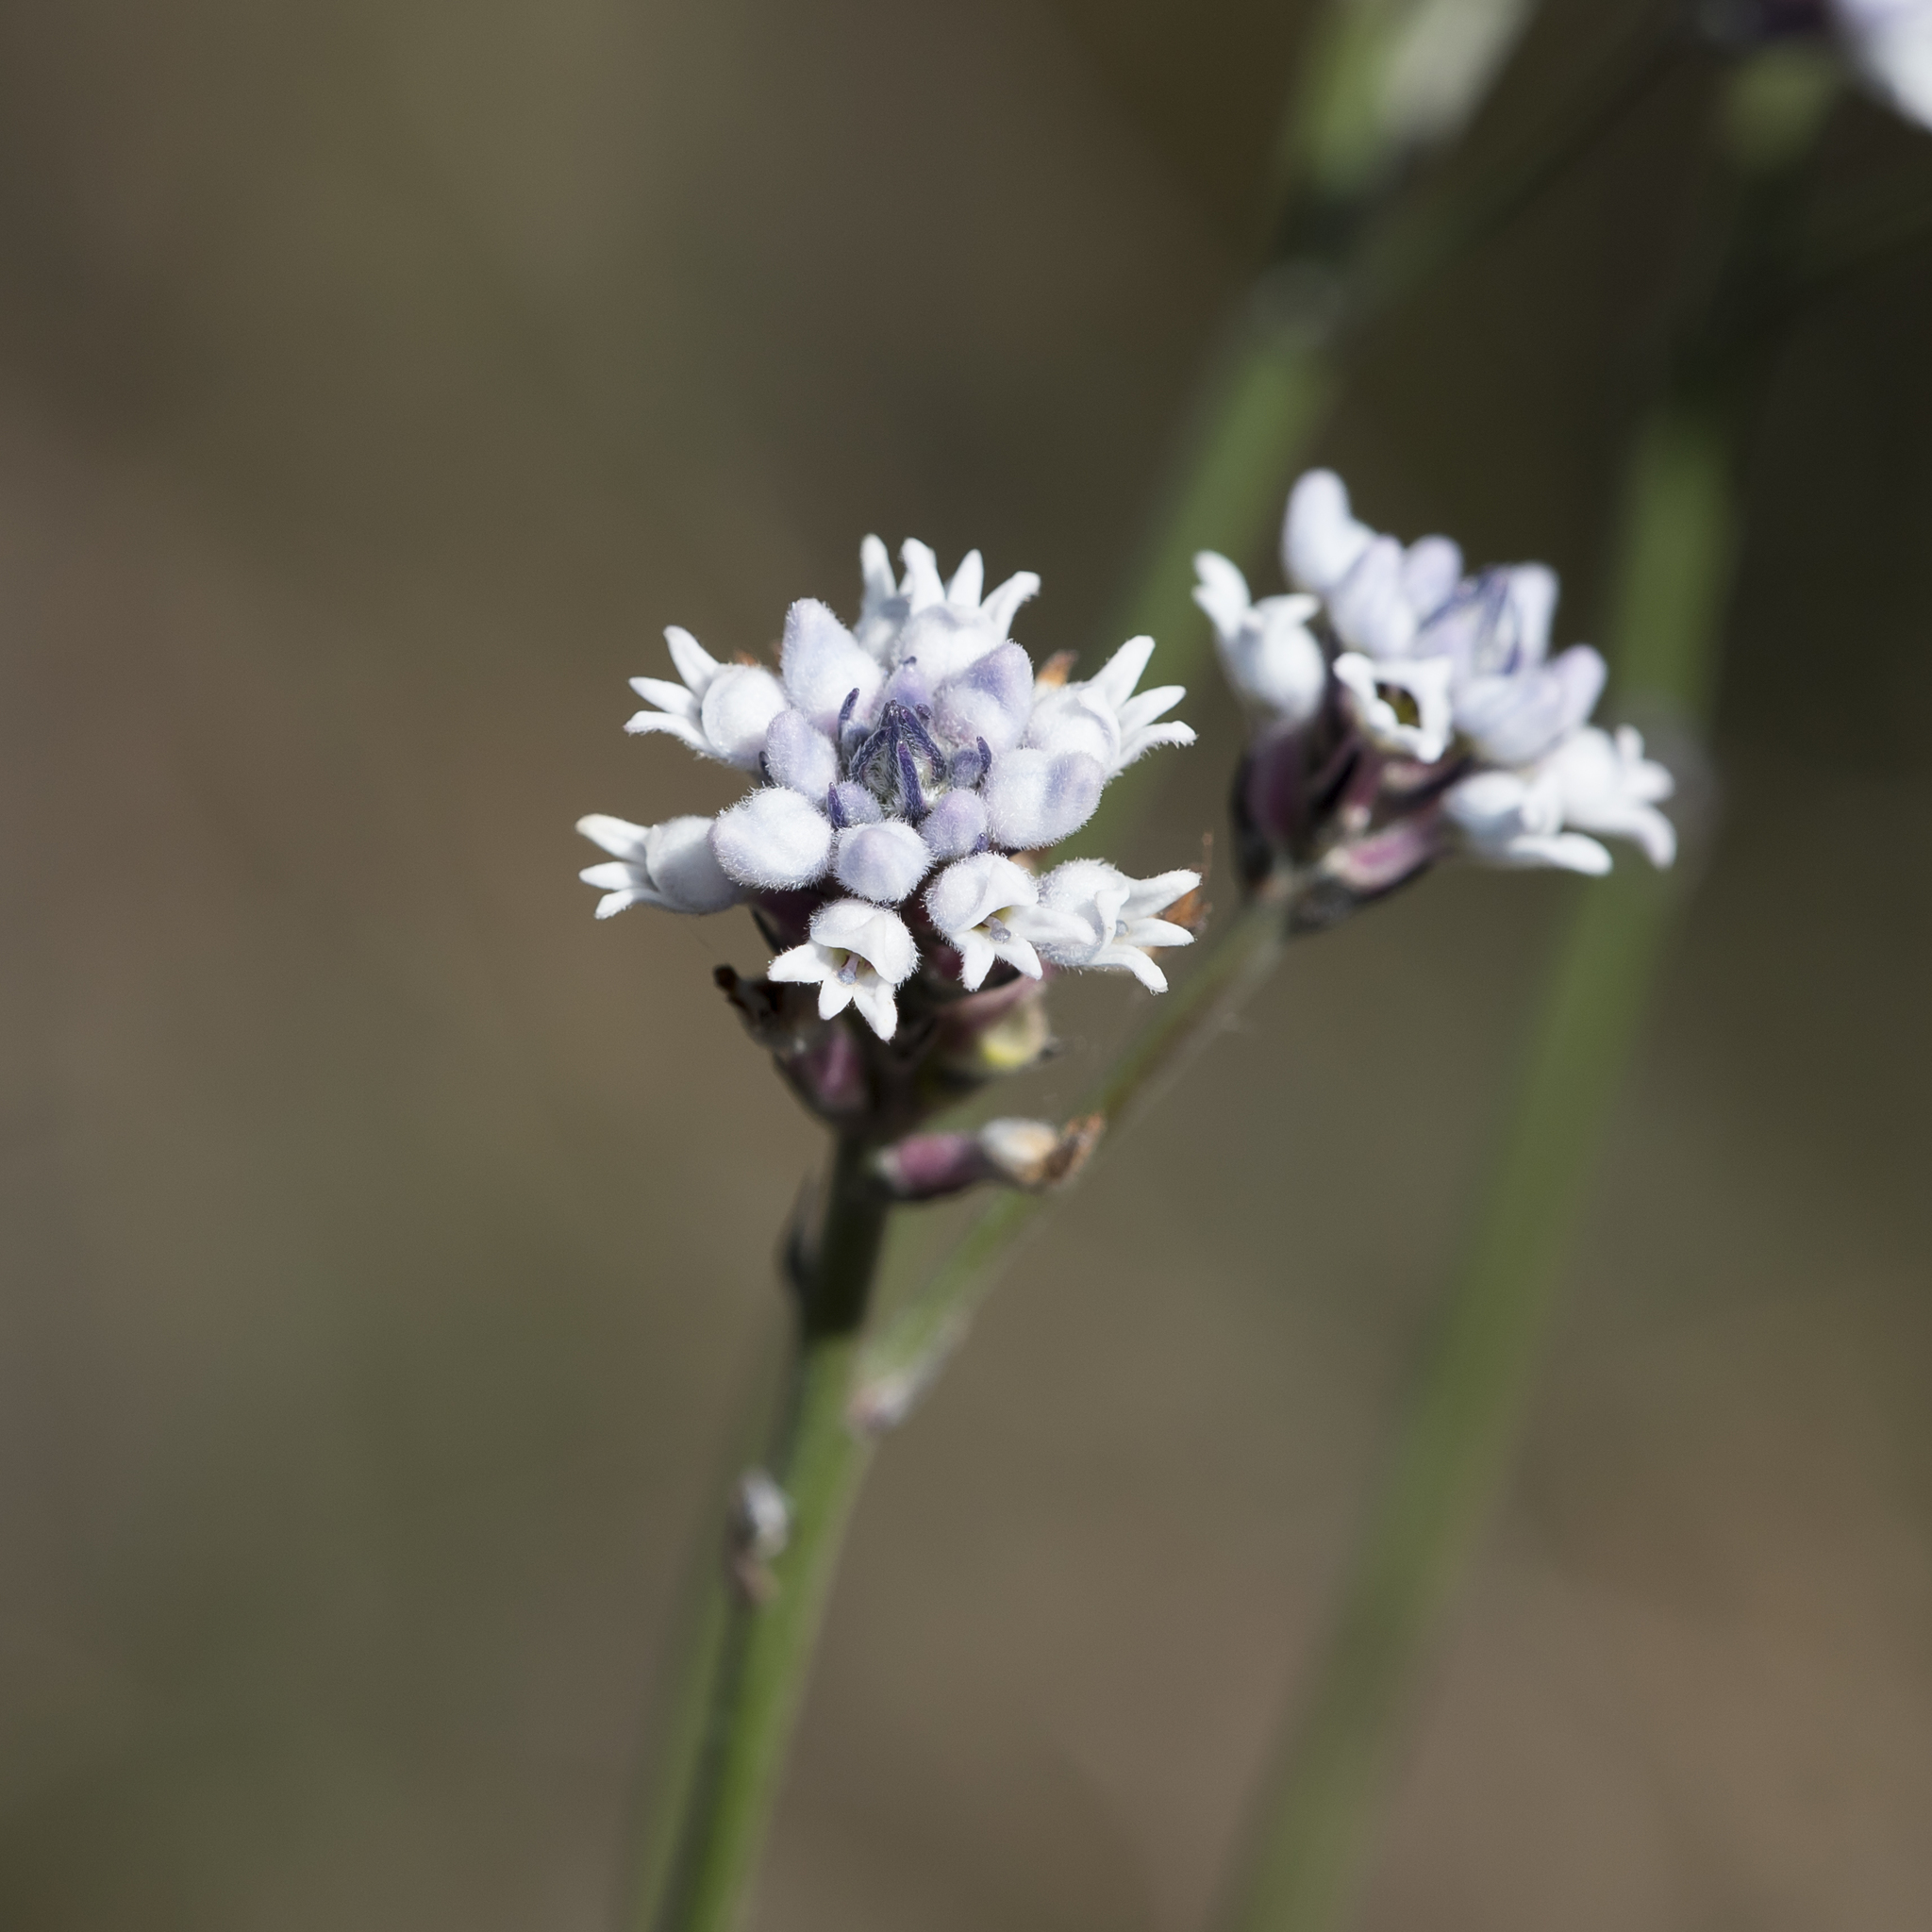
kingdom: Plantae
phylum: Tracheophyta
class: Magnoliopsida
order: Proteales
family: Proteaceae
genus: Conospermum
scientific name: Conospermum patens
